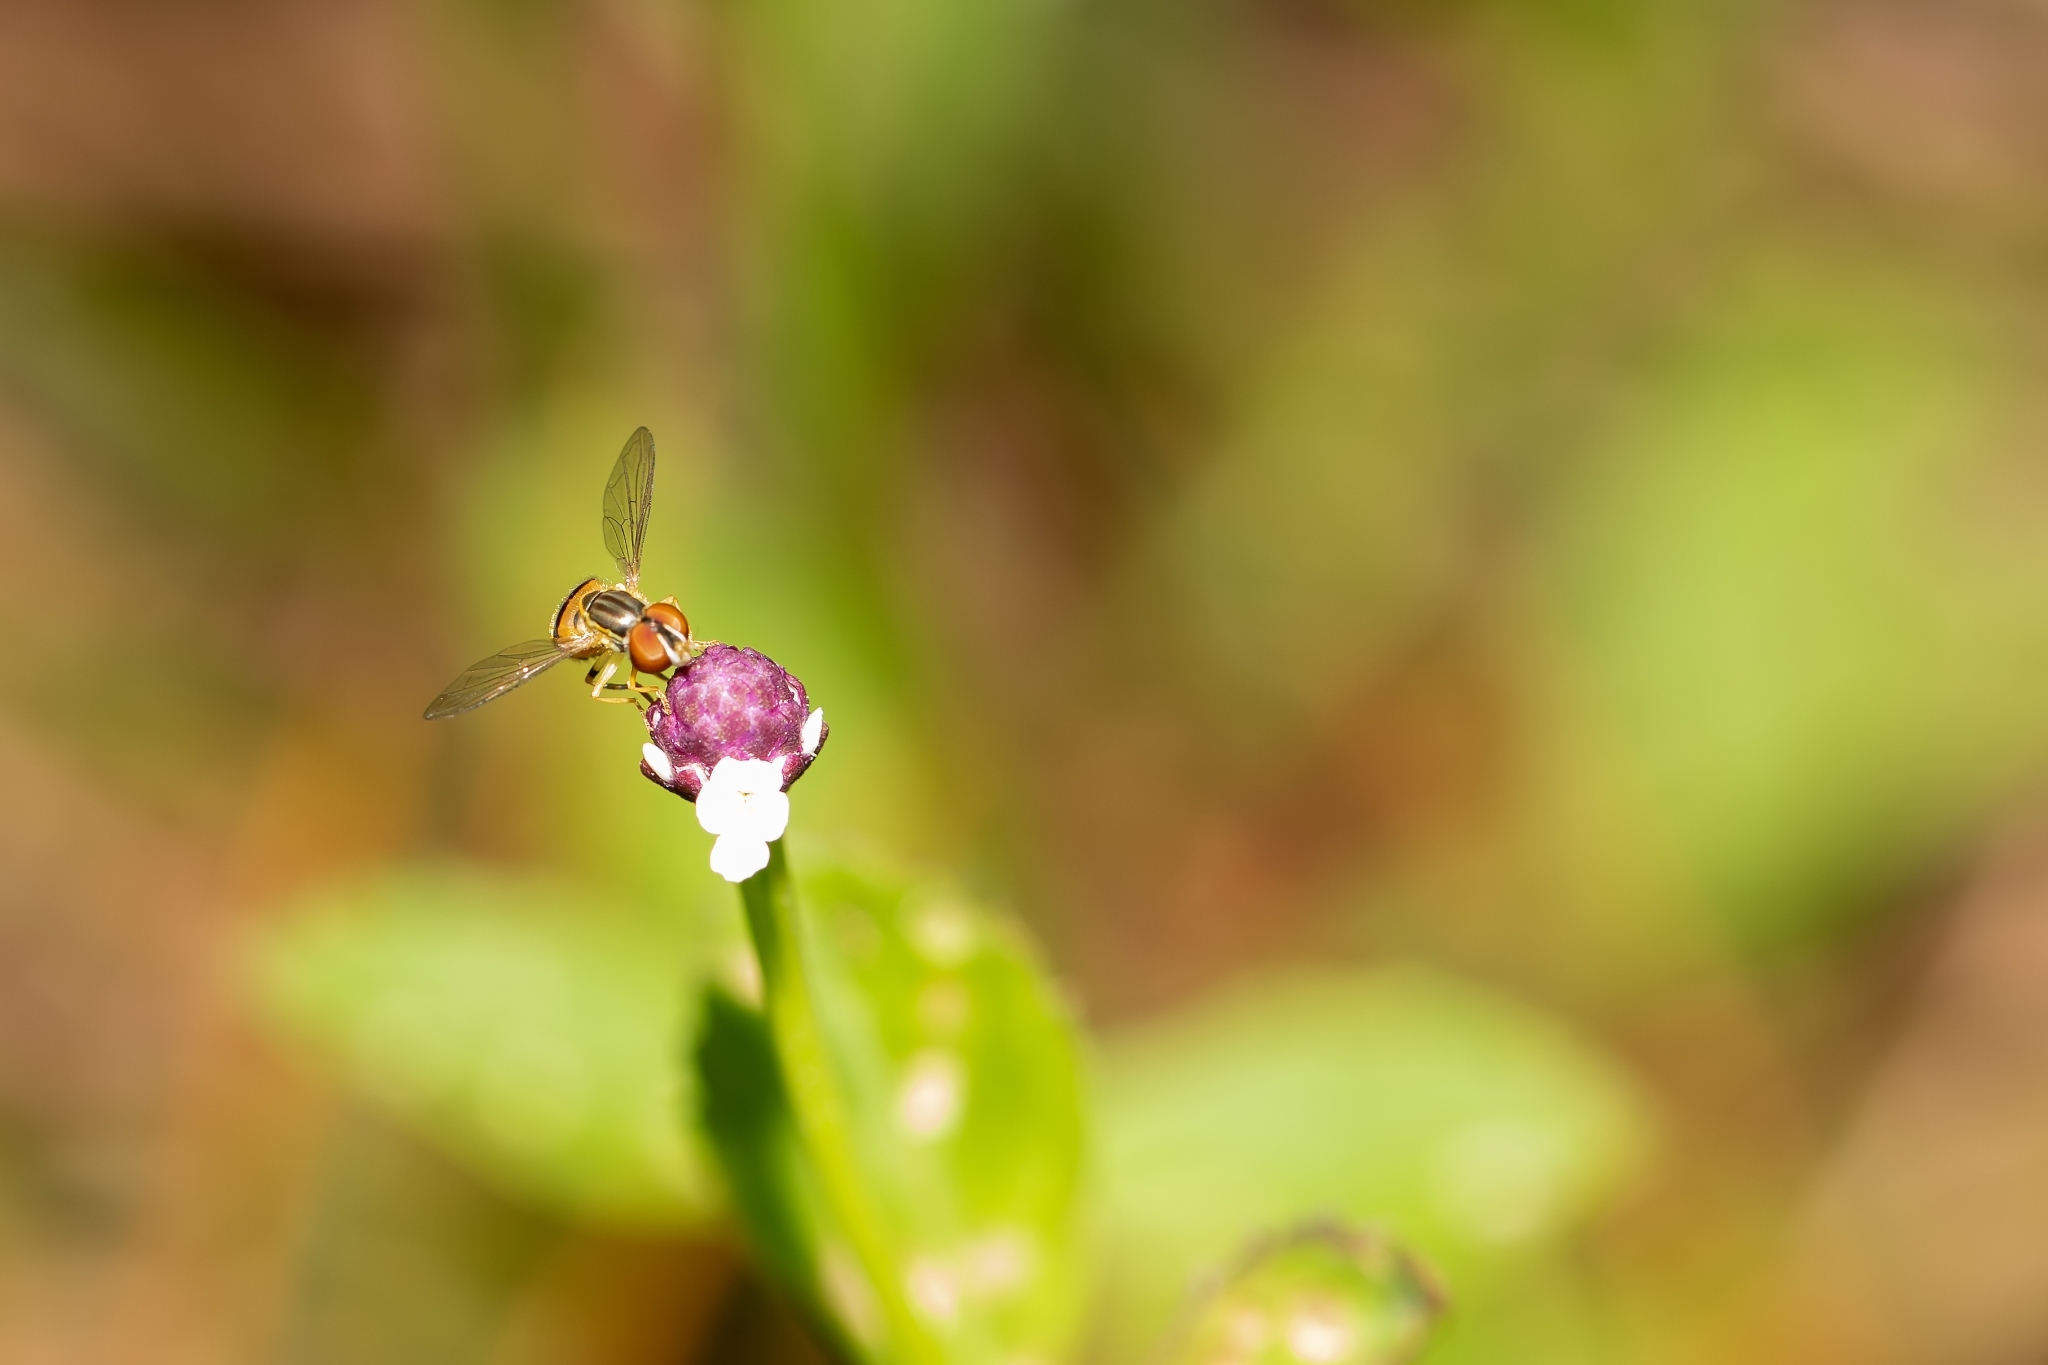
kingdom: Animalia
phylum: Arthropoda
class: Insecta
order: Diptera
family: Syrphidae
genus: Toxomerus
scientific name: Toxomerus
